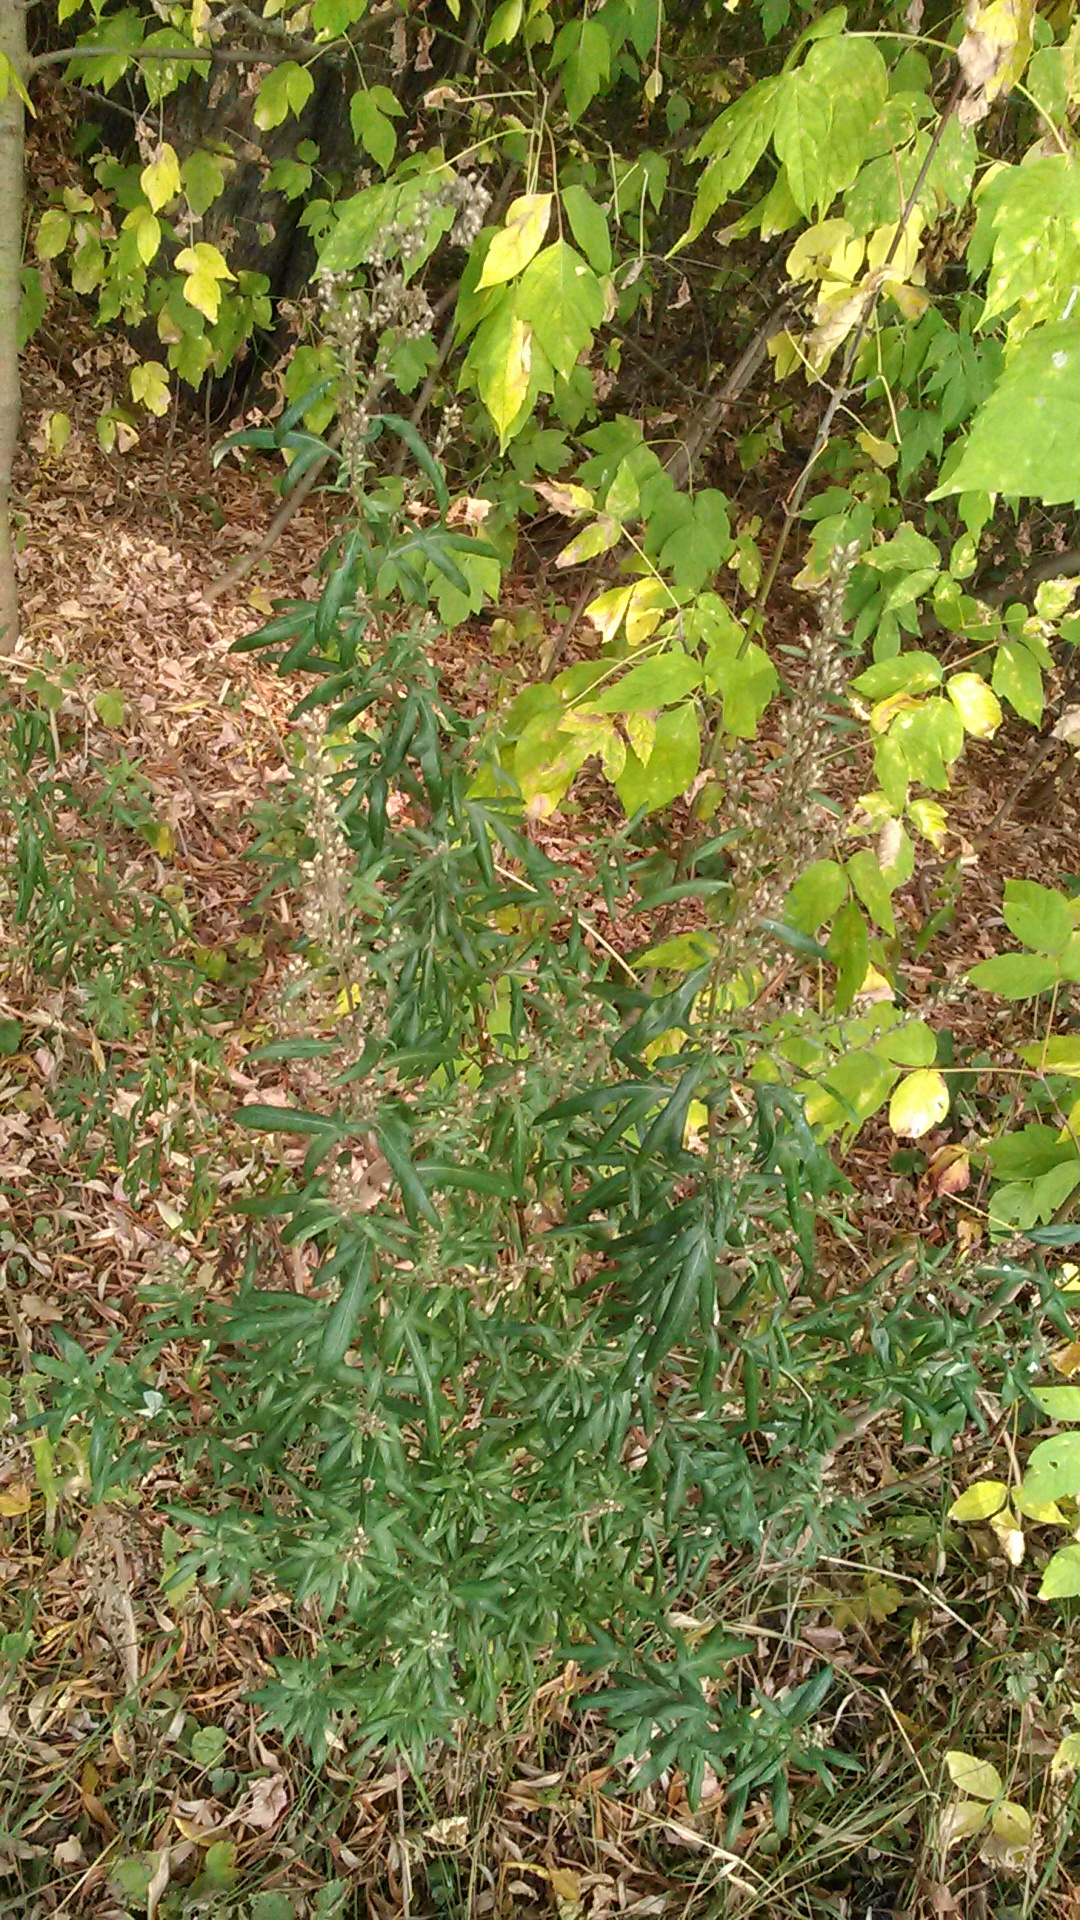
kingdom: Plantae
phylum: Tracheophyta
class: Magnoliopsida
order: Asterales
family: Asteraceae
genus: Artemisia
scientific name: Artemisia vulgaris
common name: Mugwort
